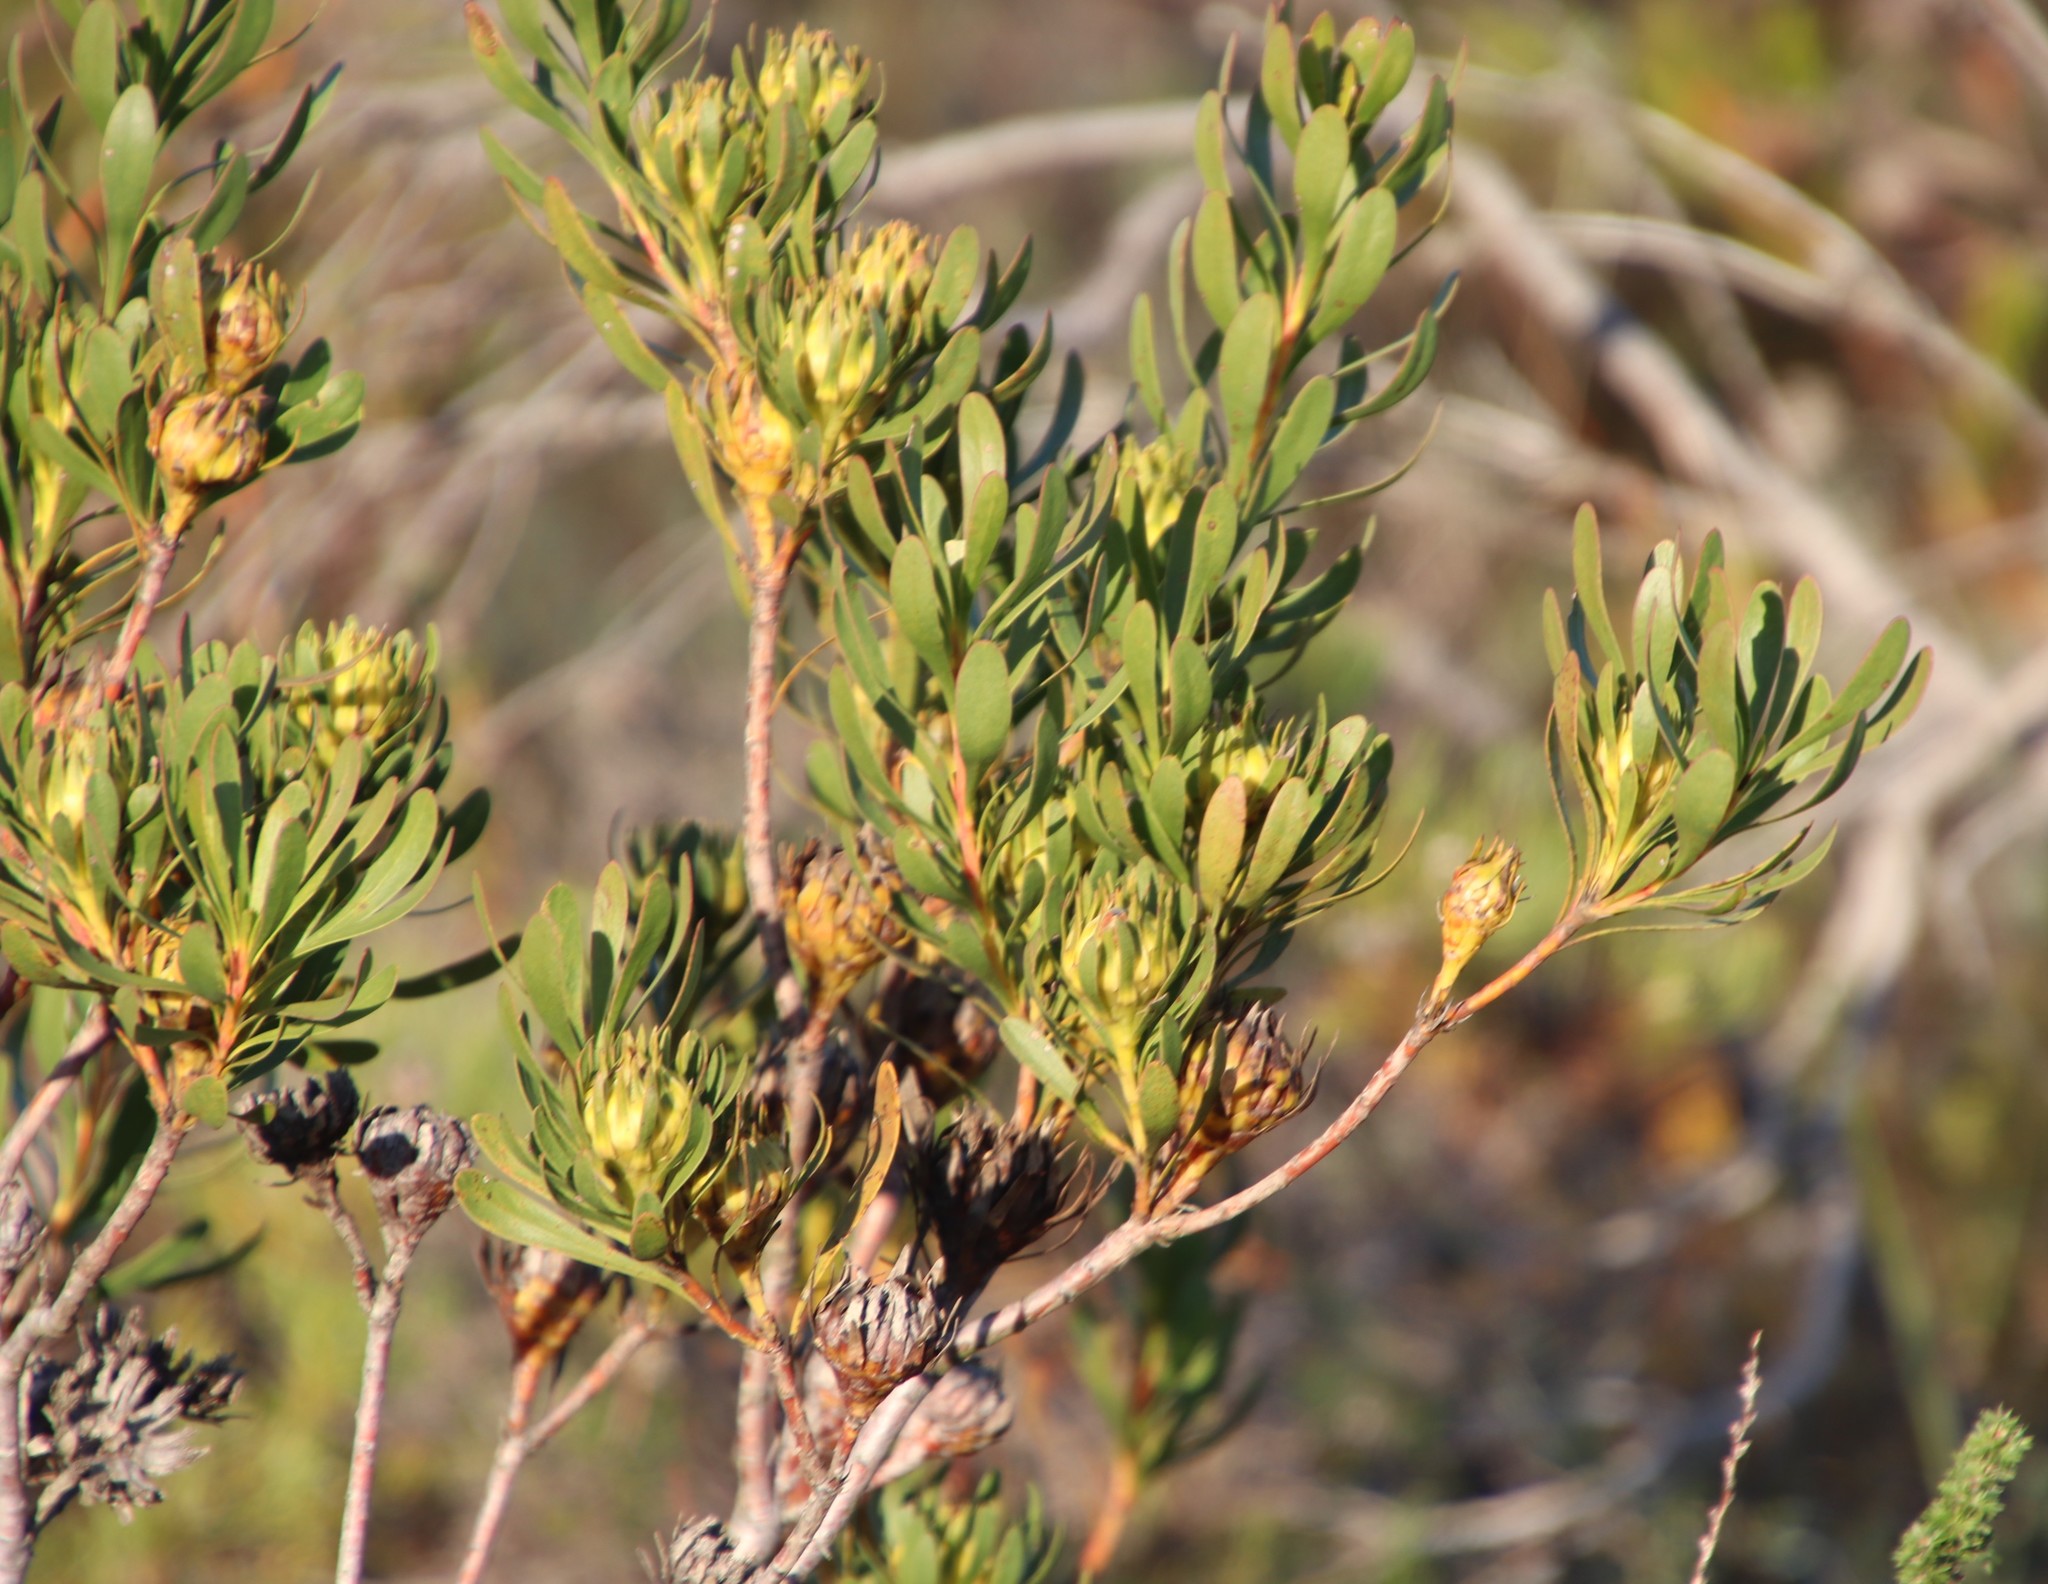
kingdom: Plantae
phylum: Tracheophyta
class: Magnoliopsida
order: Proteales
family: Proteaceae
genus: Aulax
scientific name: Aulax umbellata
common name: Broad-leaf featherbush
